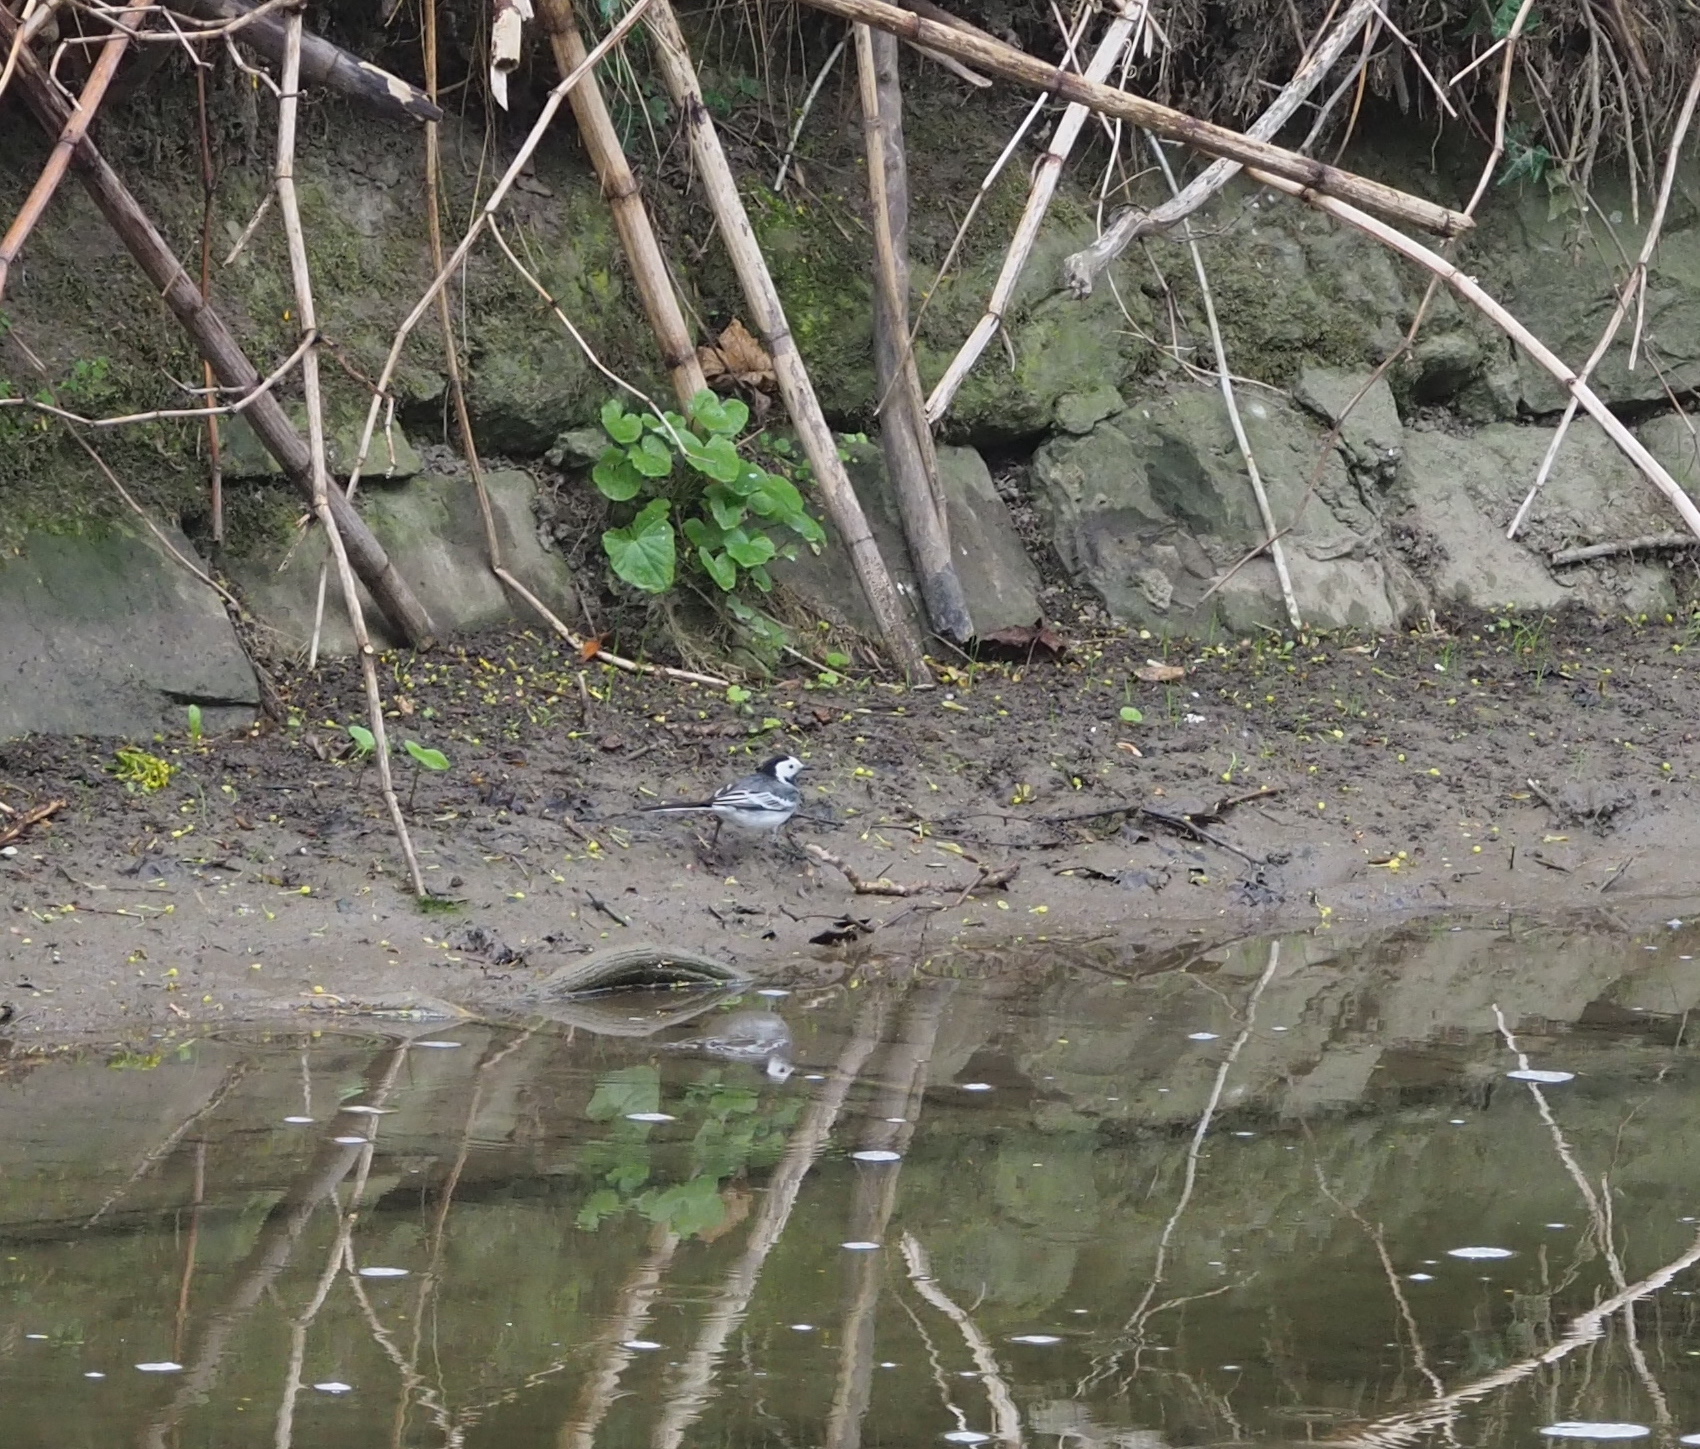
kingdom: Animalia
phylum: Chordata
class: Aves
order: Passeriformes
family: Motacillidae
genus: Motacilla
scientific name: Motacilla alba
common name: White wagtail
